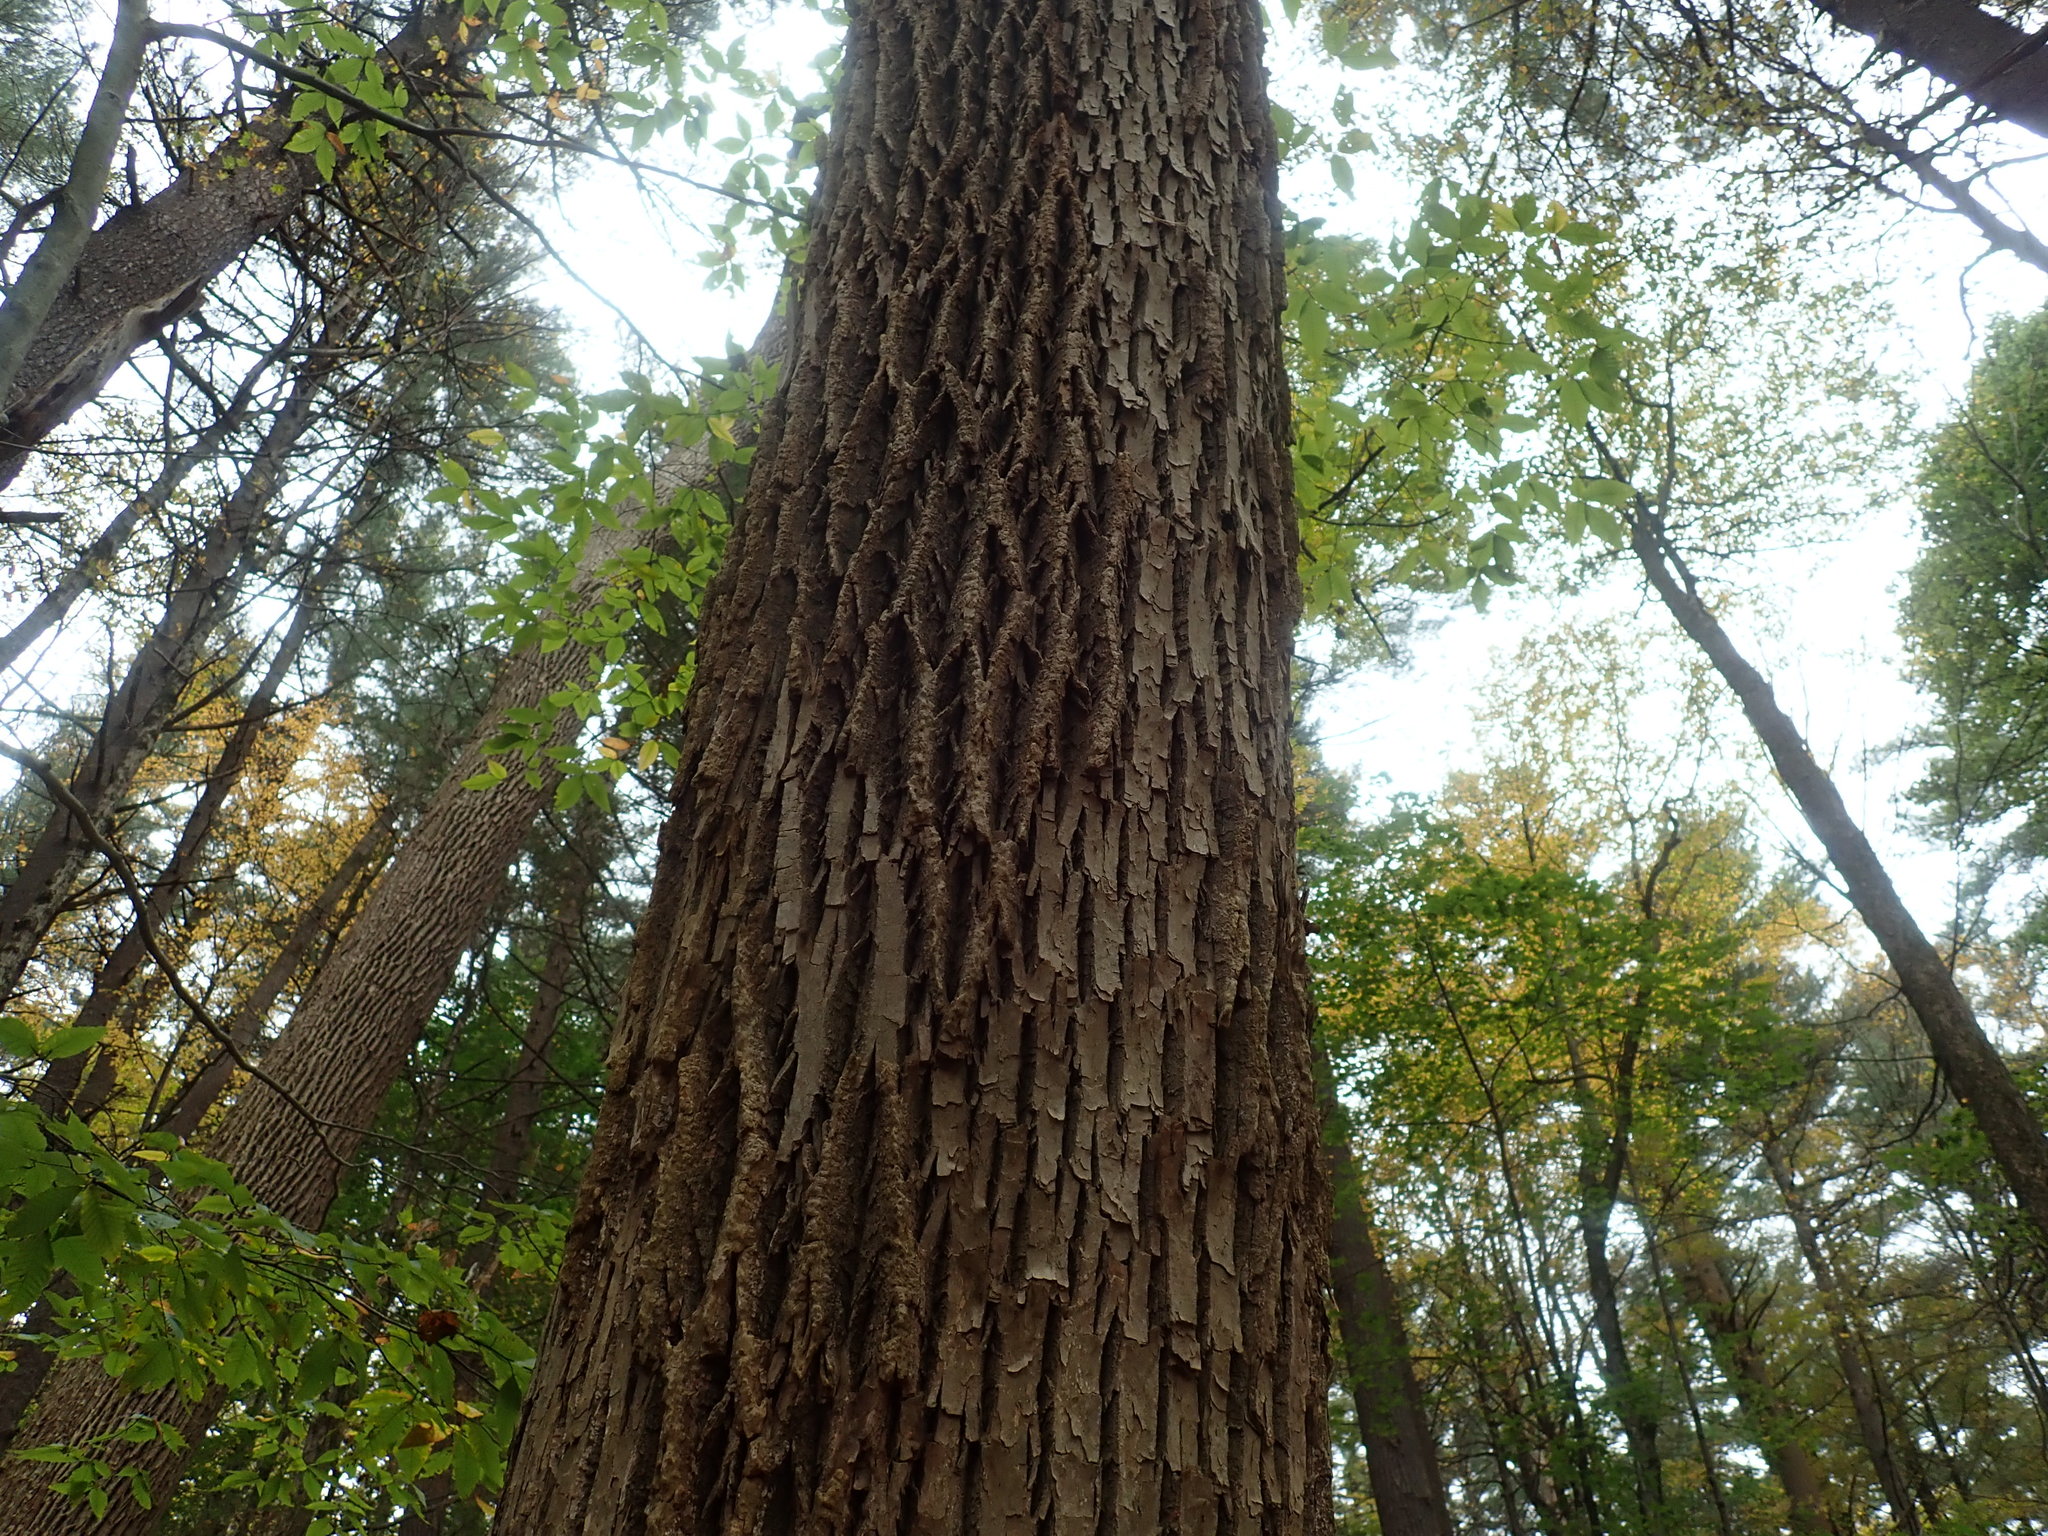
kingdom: Plantae
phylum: Tracheophyta
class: Magnoliopsida
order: Lamiales
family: Oleaceae
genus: Fraxinus
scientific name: Fraxinus americana
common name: White ash
